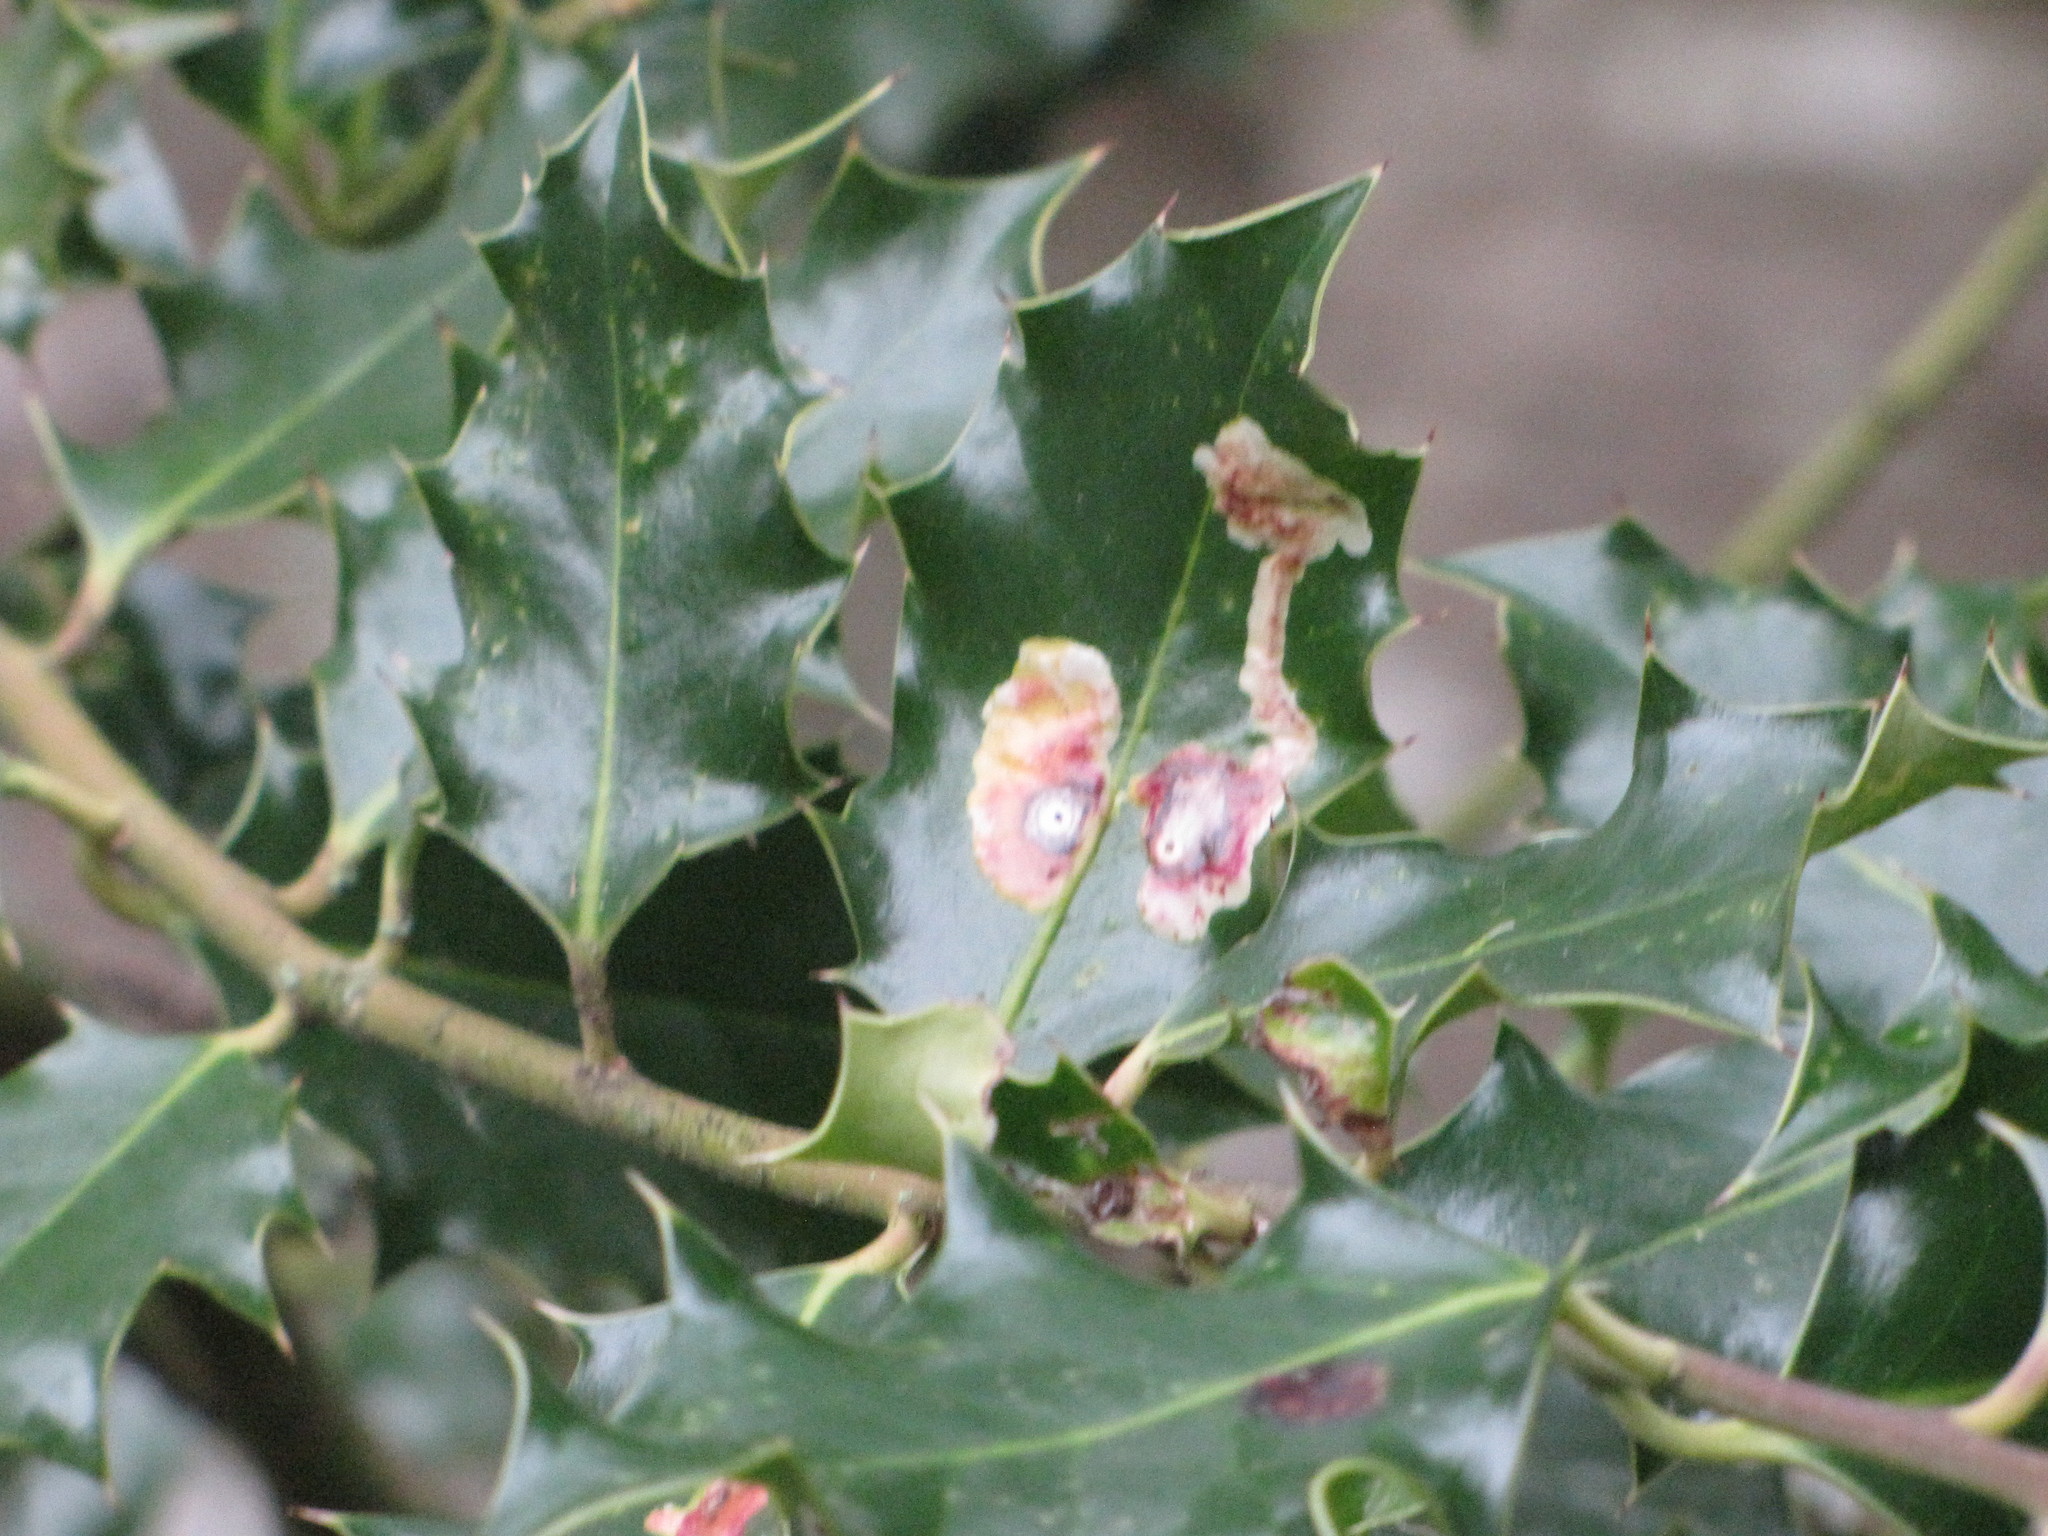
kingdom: Animalia
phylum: Arthropoda
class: Insecta
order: Diptera
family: Agromyzidae
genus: Phytomyza
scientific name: Phytomyza ilicis
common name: Holly leafminer
